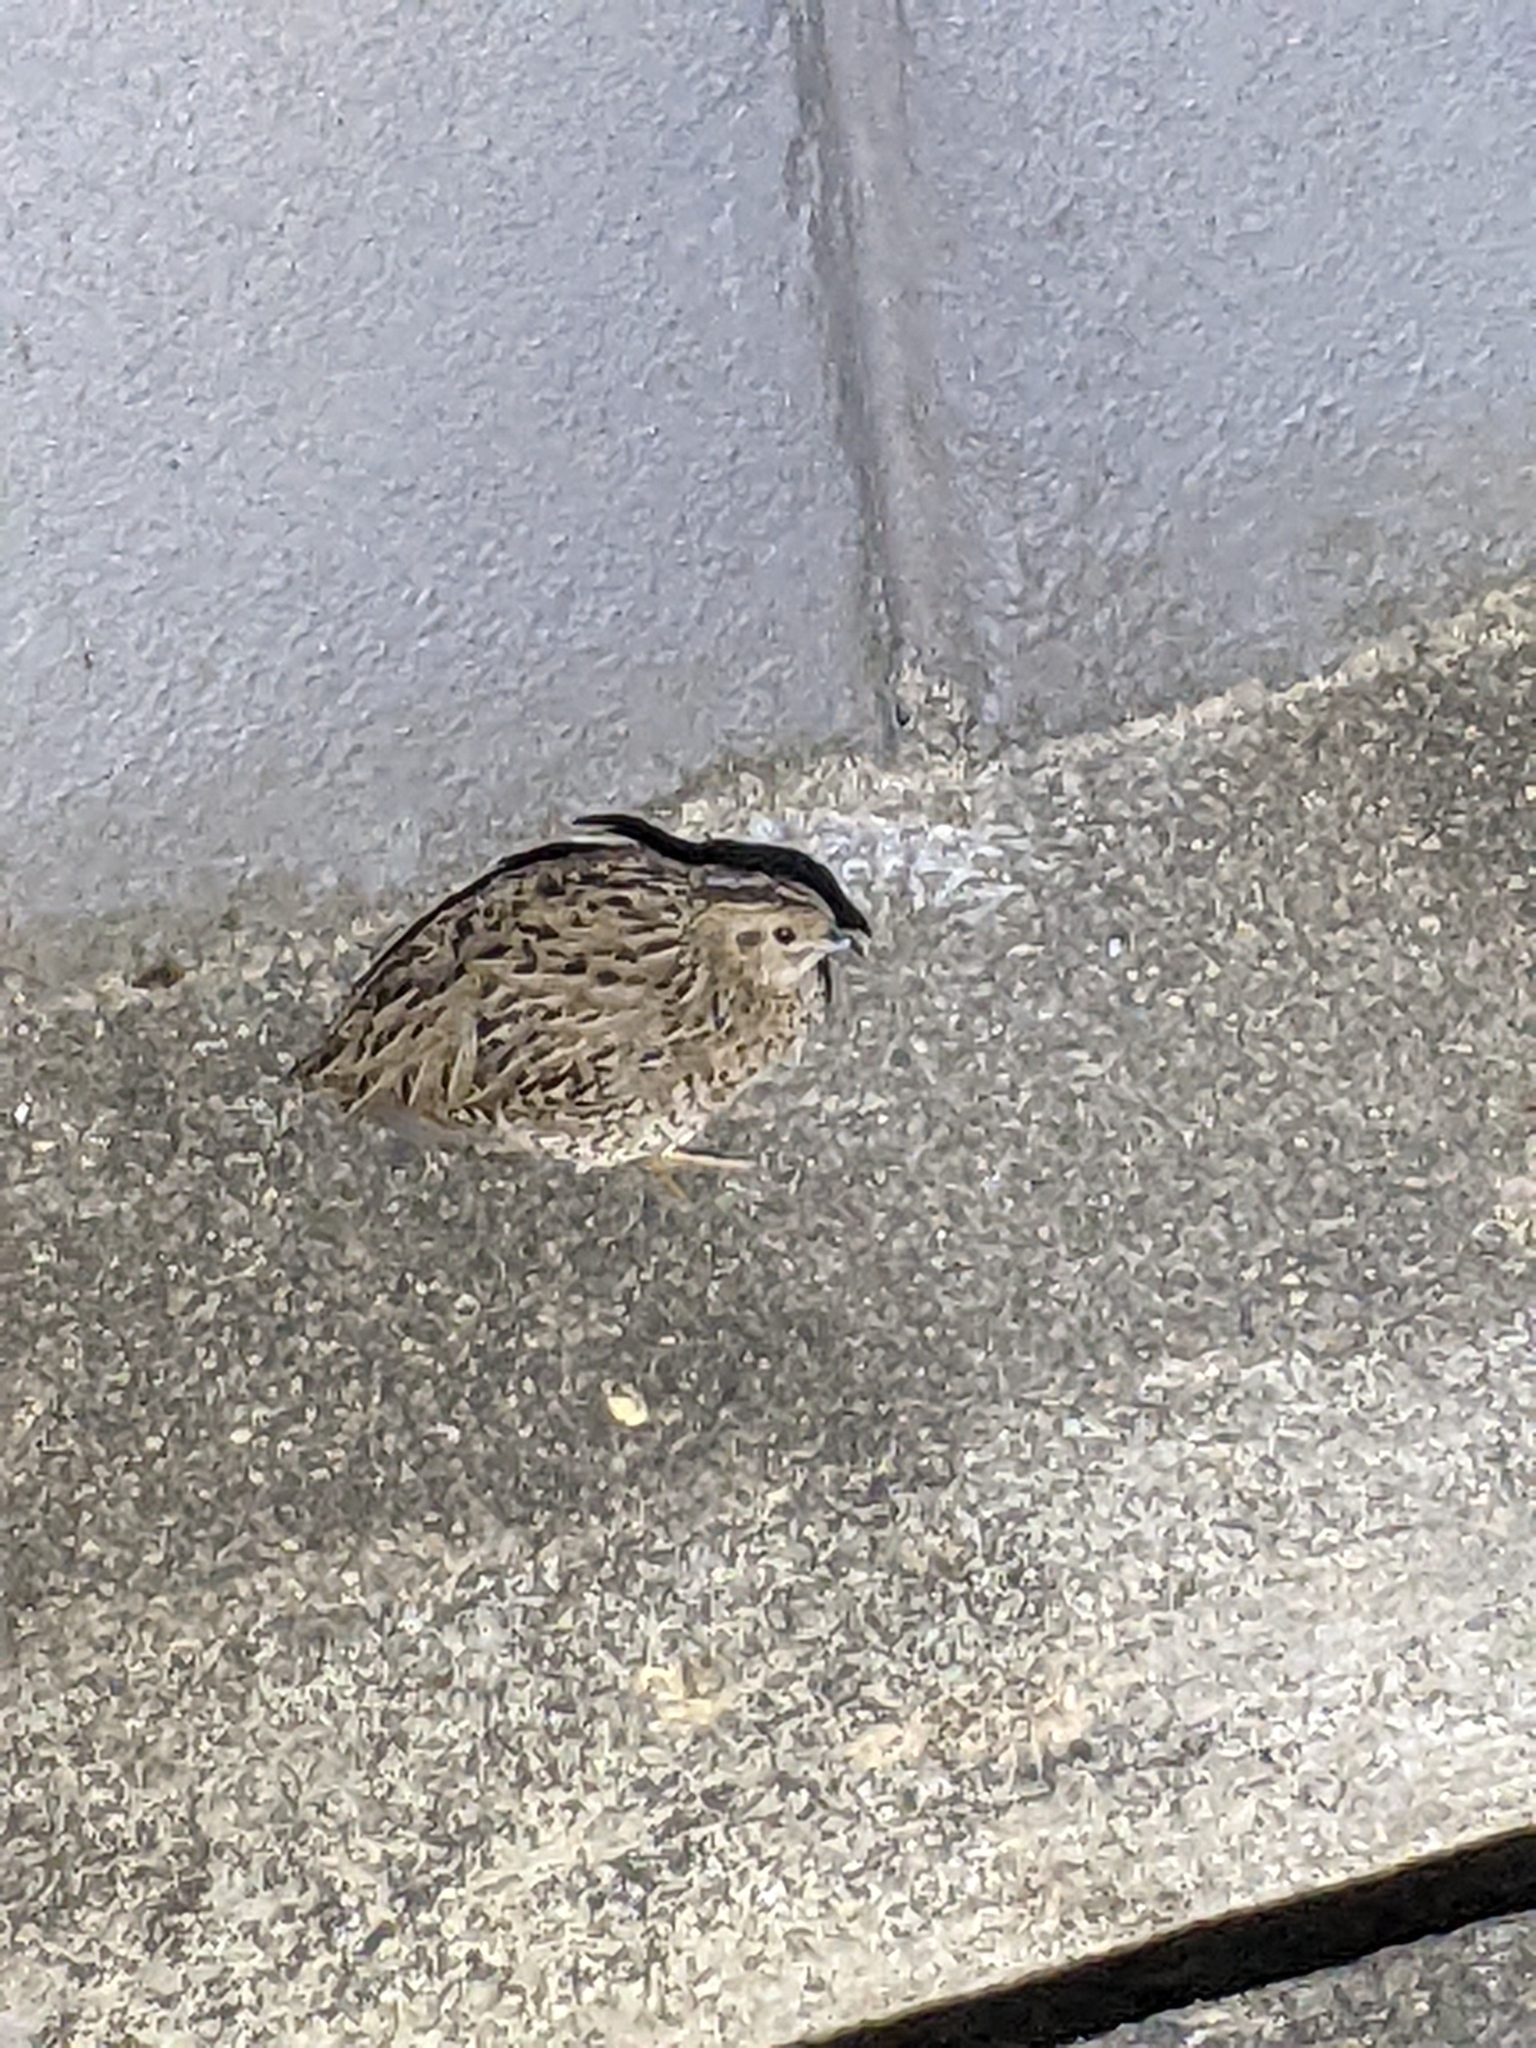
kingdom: Animalia
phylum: Chordata
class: Aves
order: Galliformes
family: Phasianidae
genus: Coturnix
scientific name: Coturnix pectoralis
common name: Stubble quail
